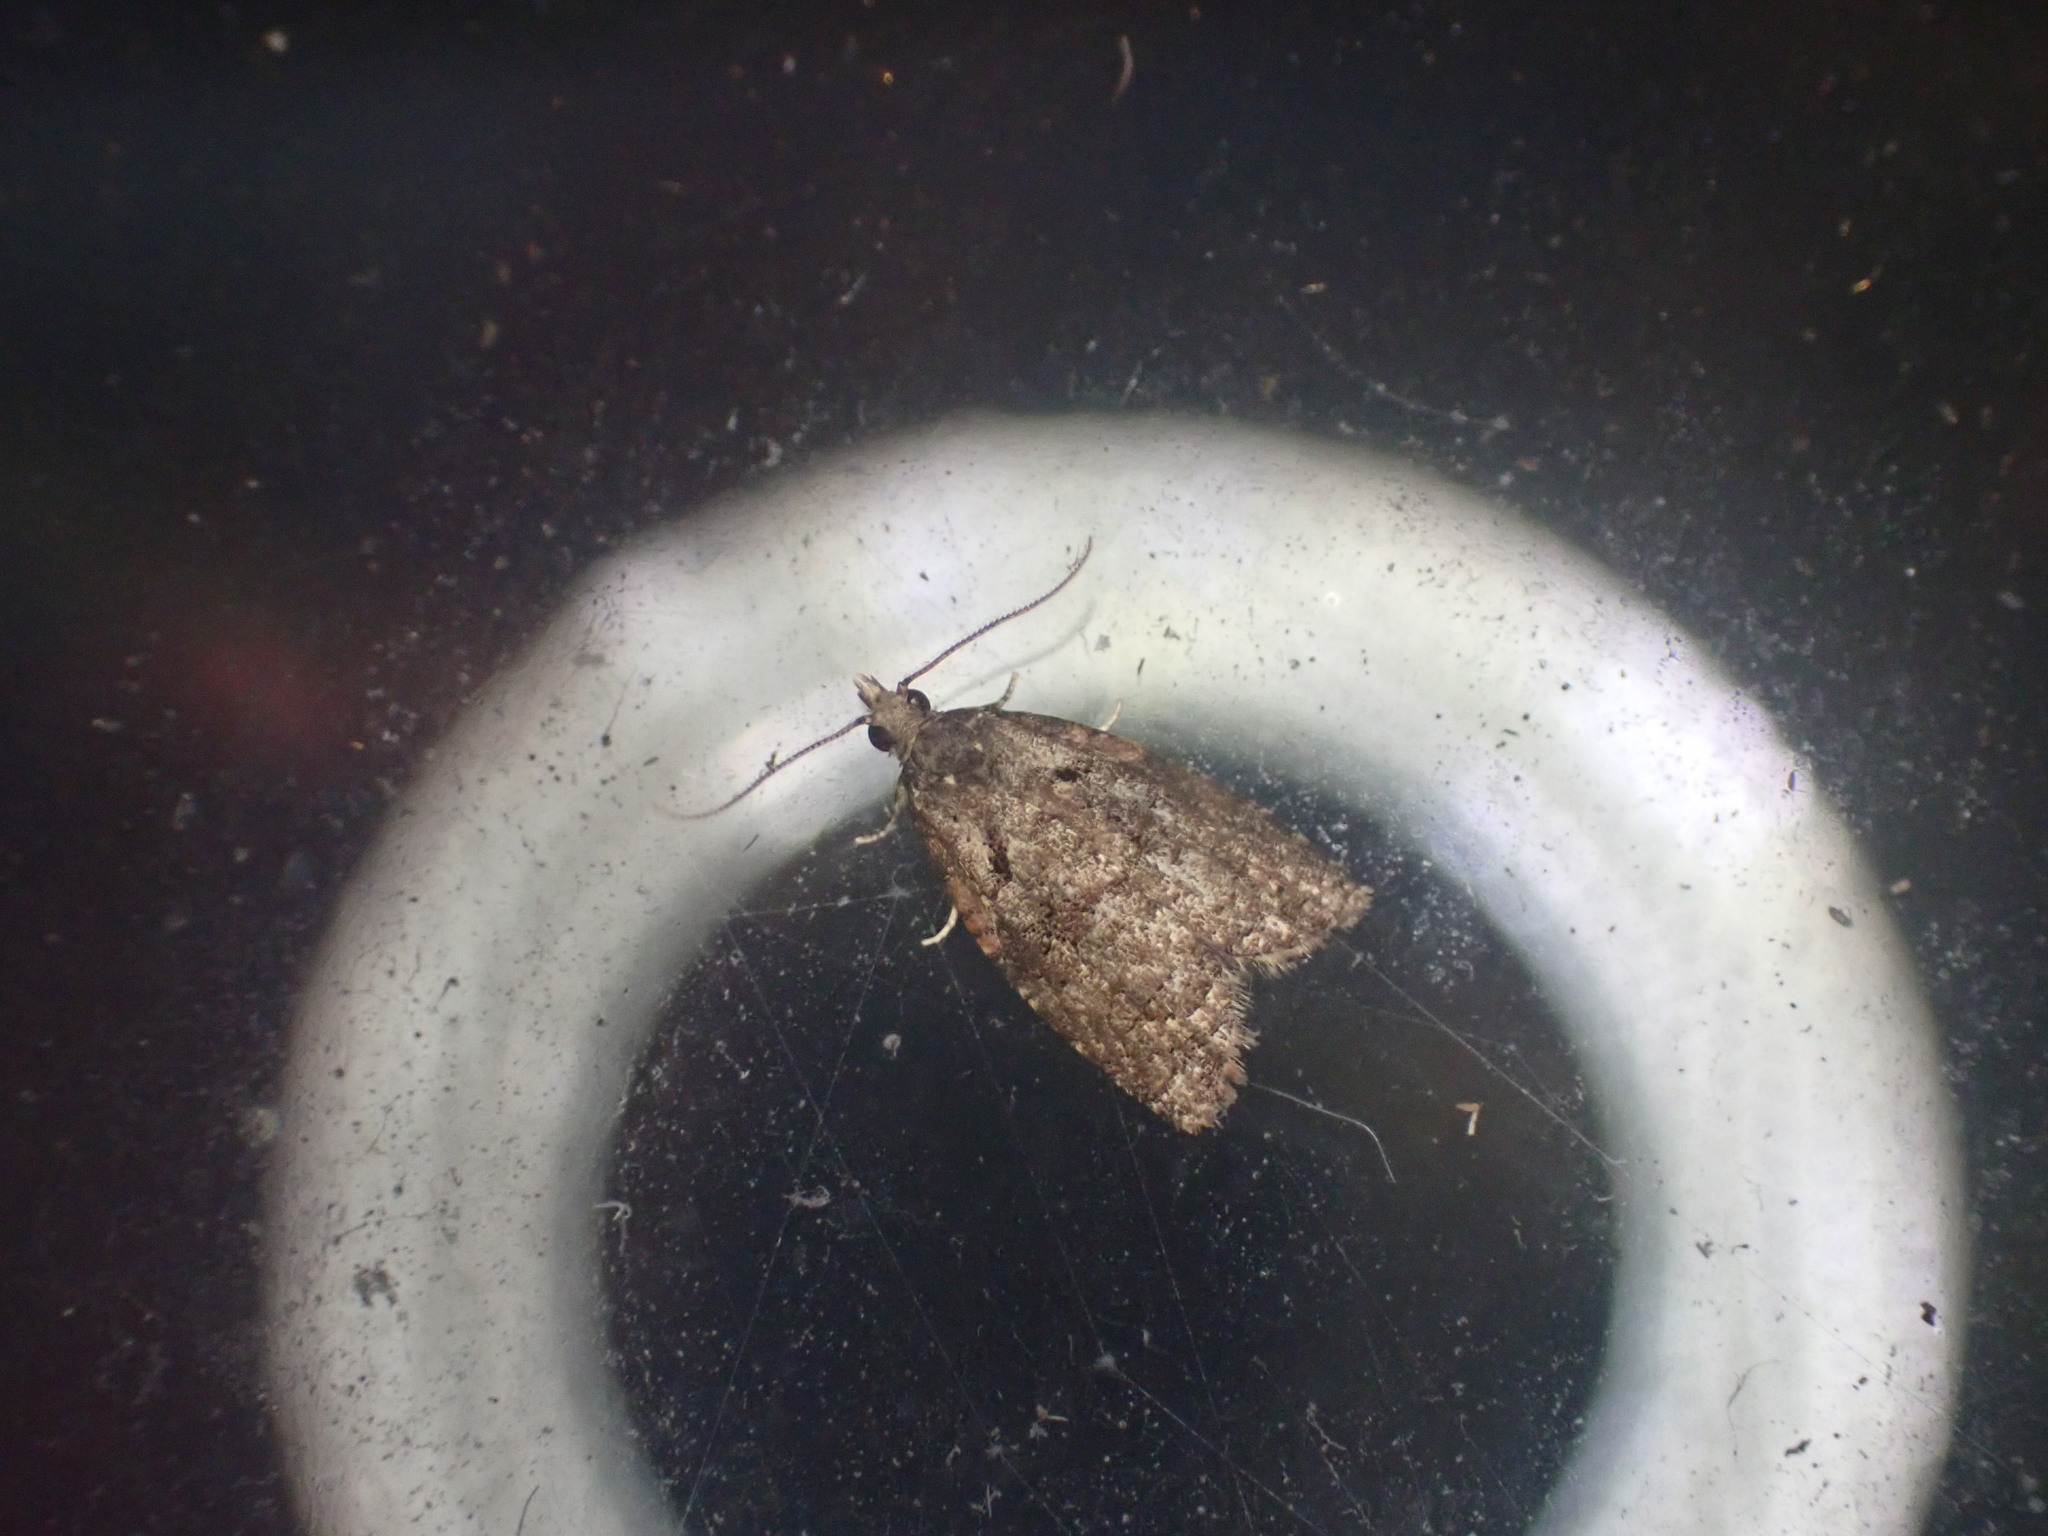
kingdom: Animalia
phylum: Arthropoda
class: Insecta
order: Lepidoptera
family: Tortricidae
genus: Capua
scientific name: Capua intractana
